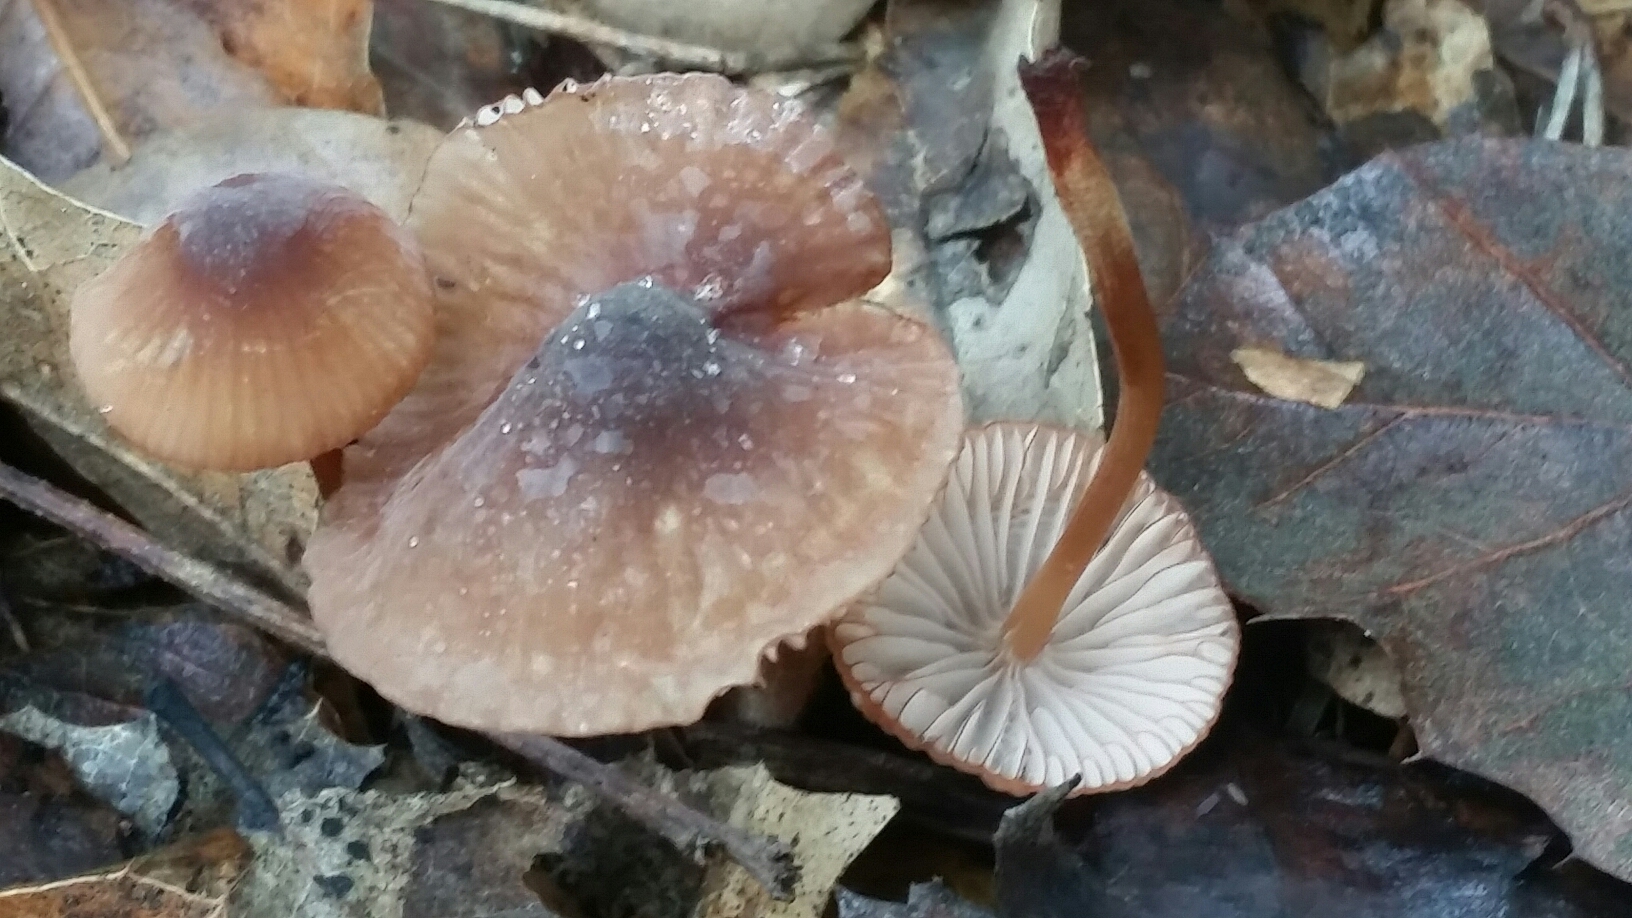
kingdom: Fungi
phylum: Basidiomycota
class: Agaricomycetes
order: Agaricales
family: Mycenaceae
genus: Mycena
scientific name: Mycena
